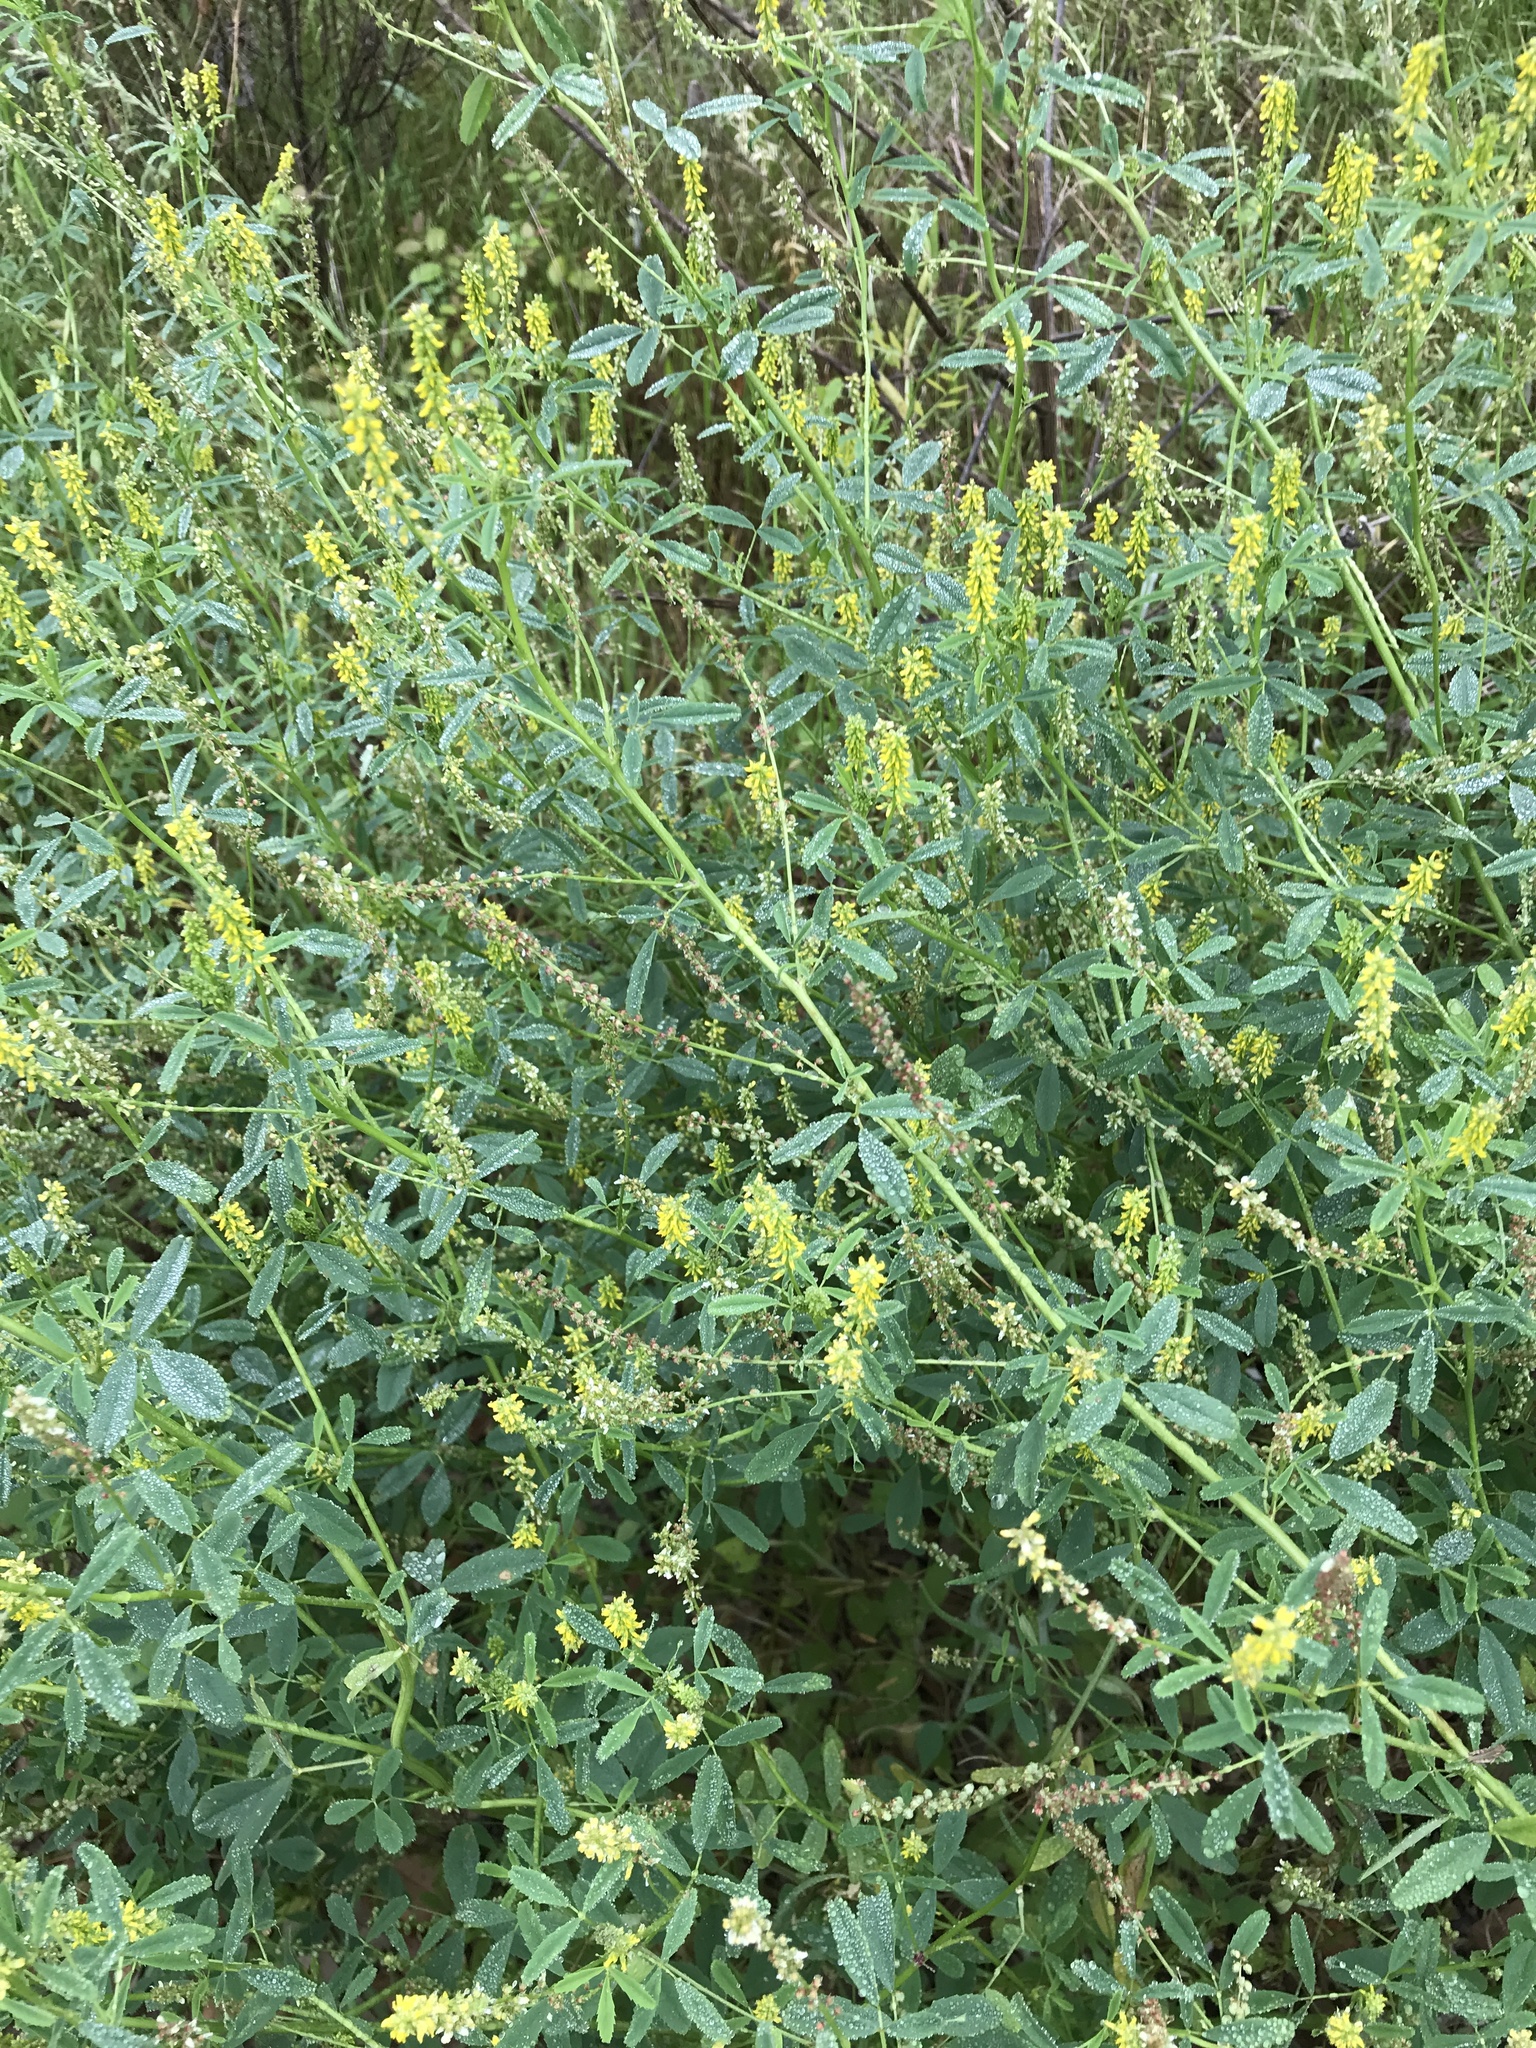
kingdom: Plantae
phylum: Tracheophyta
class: Magnoliopsida
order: Fabales
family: Fabaceae
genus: Melilotus
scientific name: Melilotus indicus
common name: Small melilot
